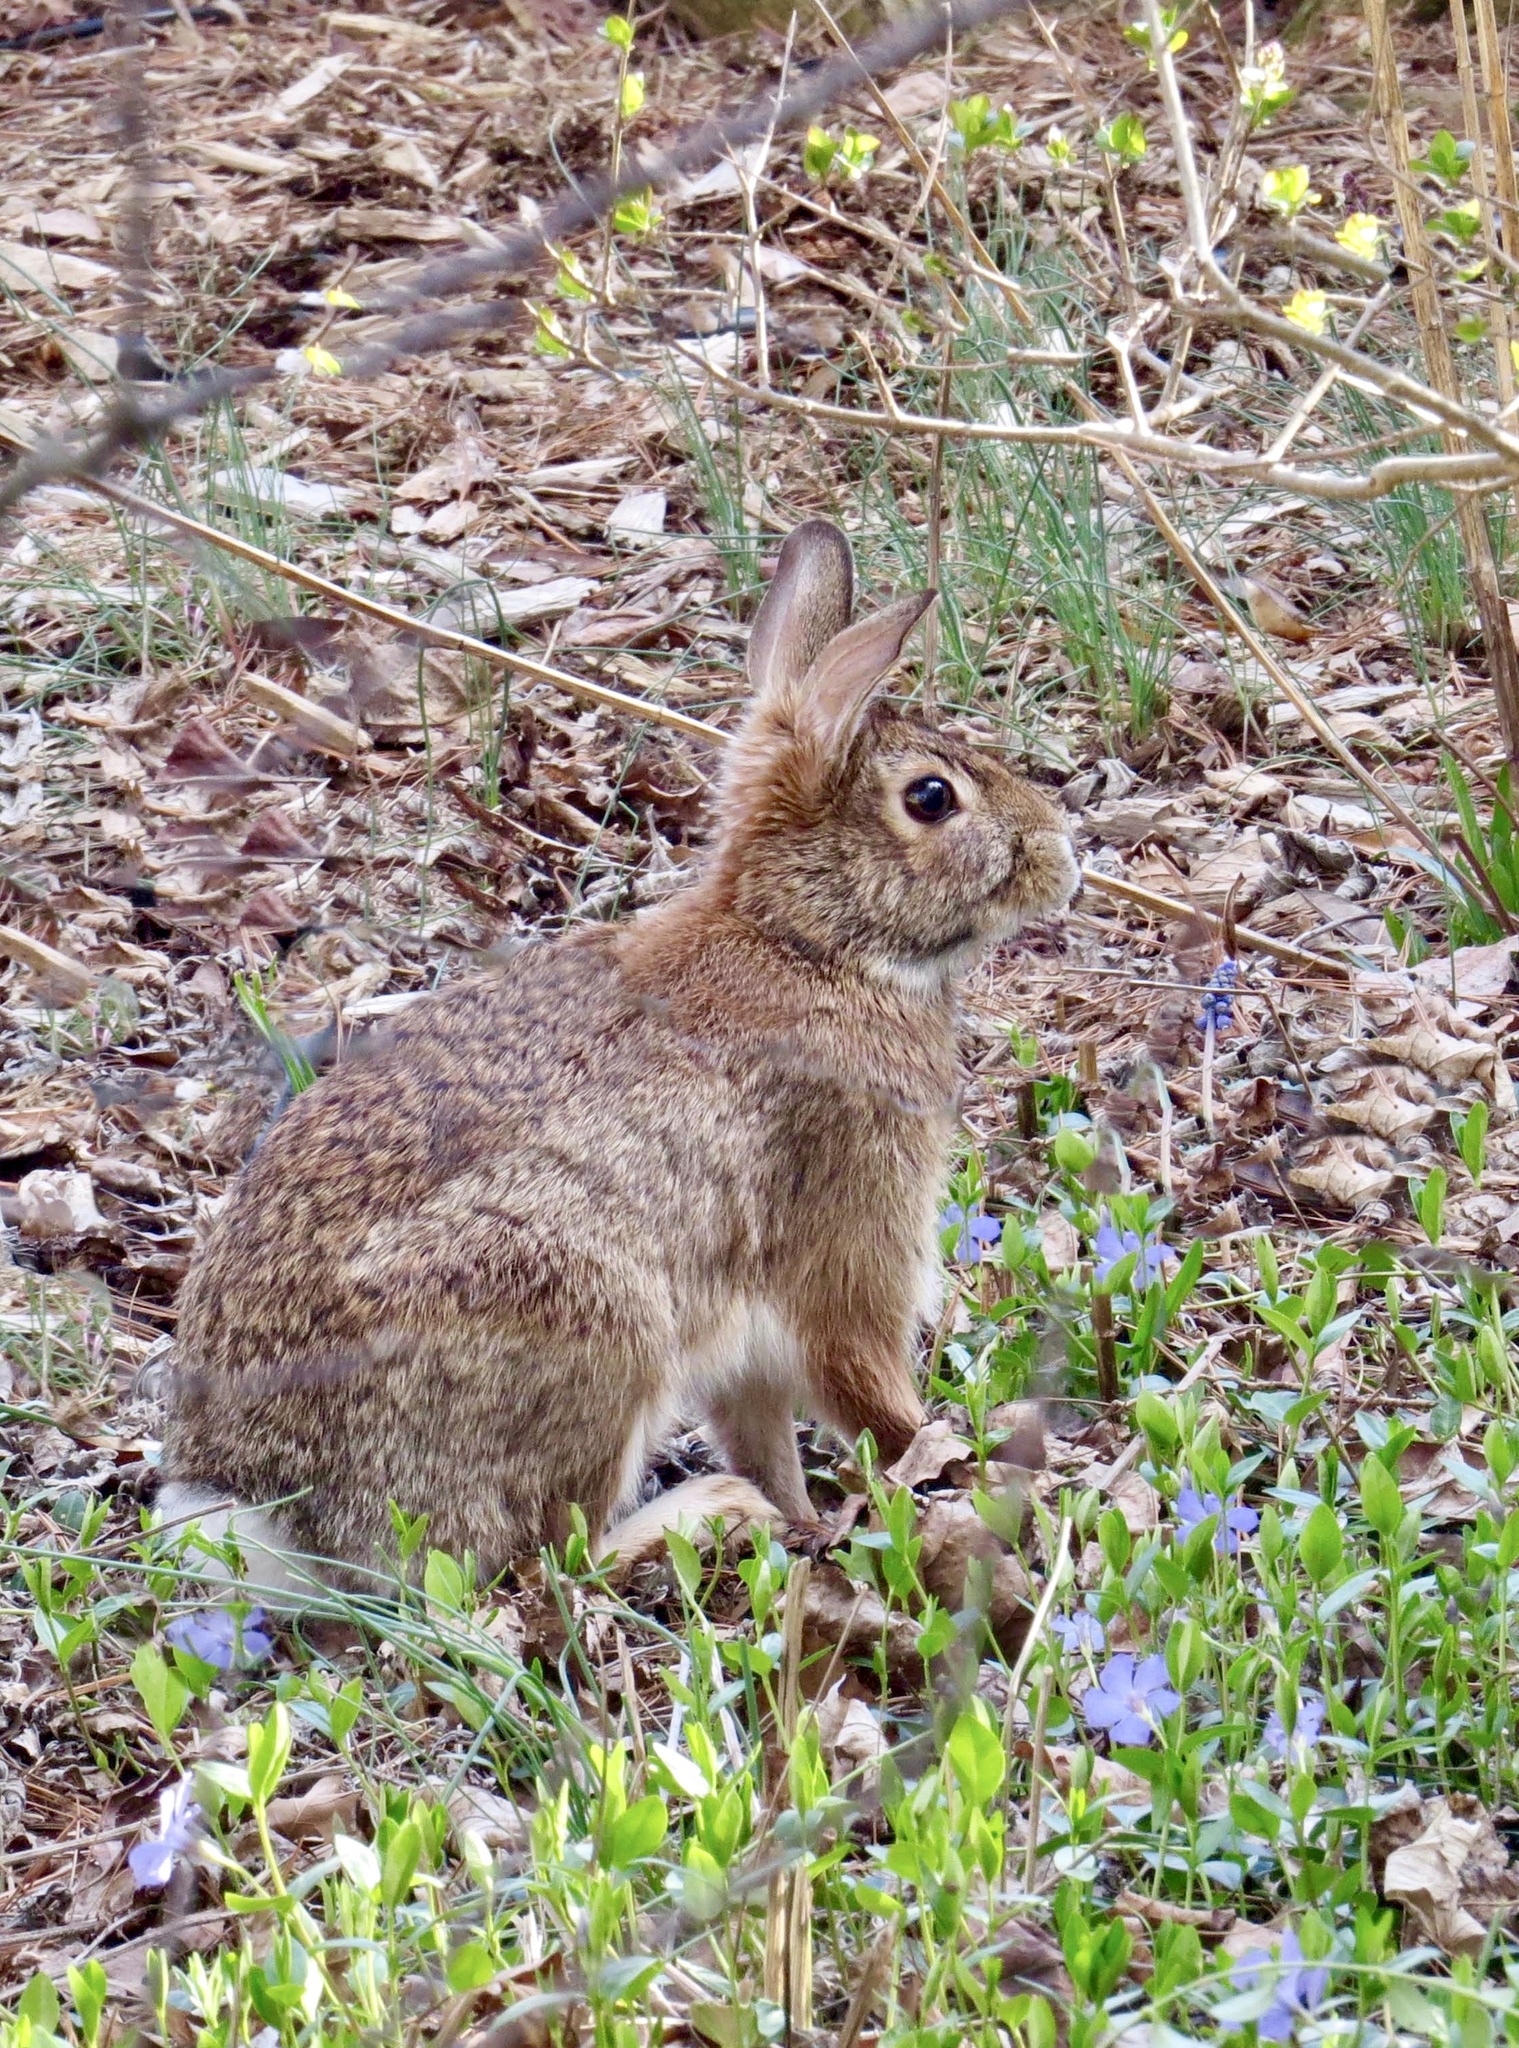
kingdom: Animalia
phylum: Chordata
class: Mammalia
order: Lagomorpha
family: Leporidae
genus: Sylvilagus
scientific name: Sylvilagus floridanus
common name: Eastern cottontail
